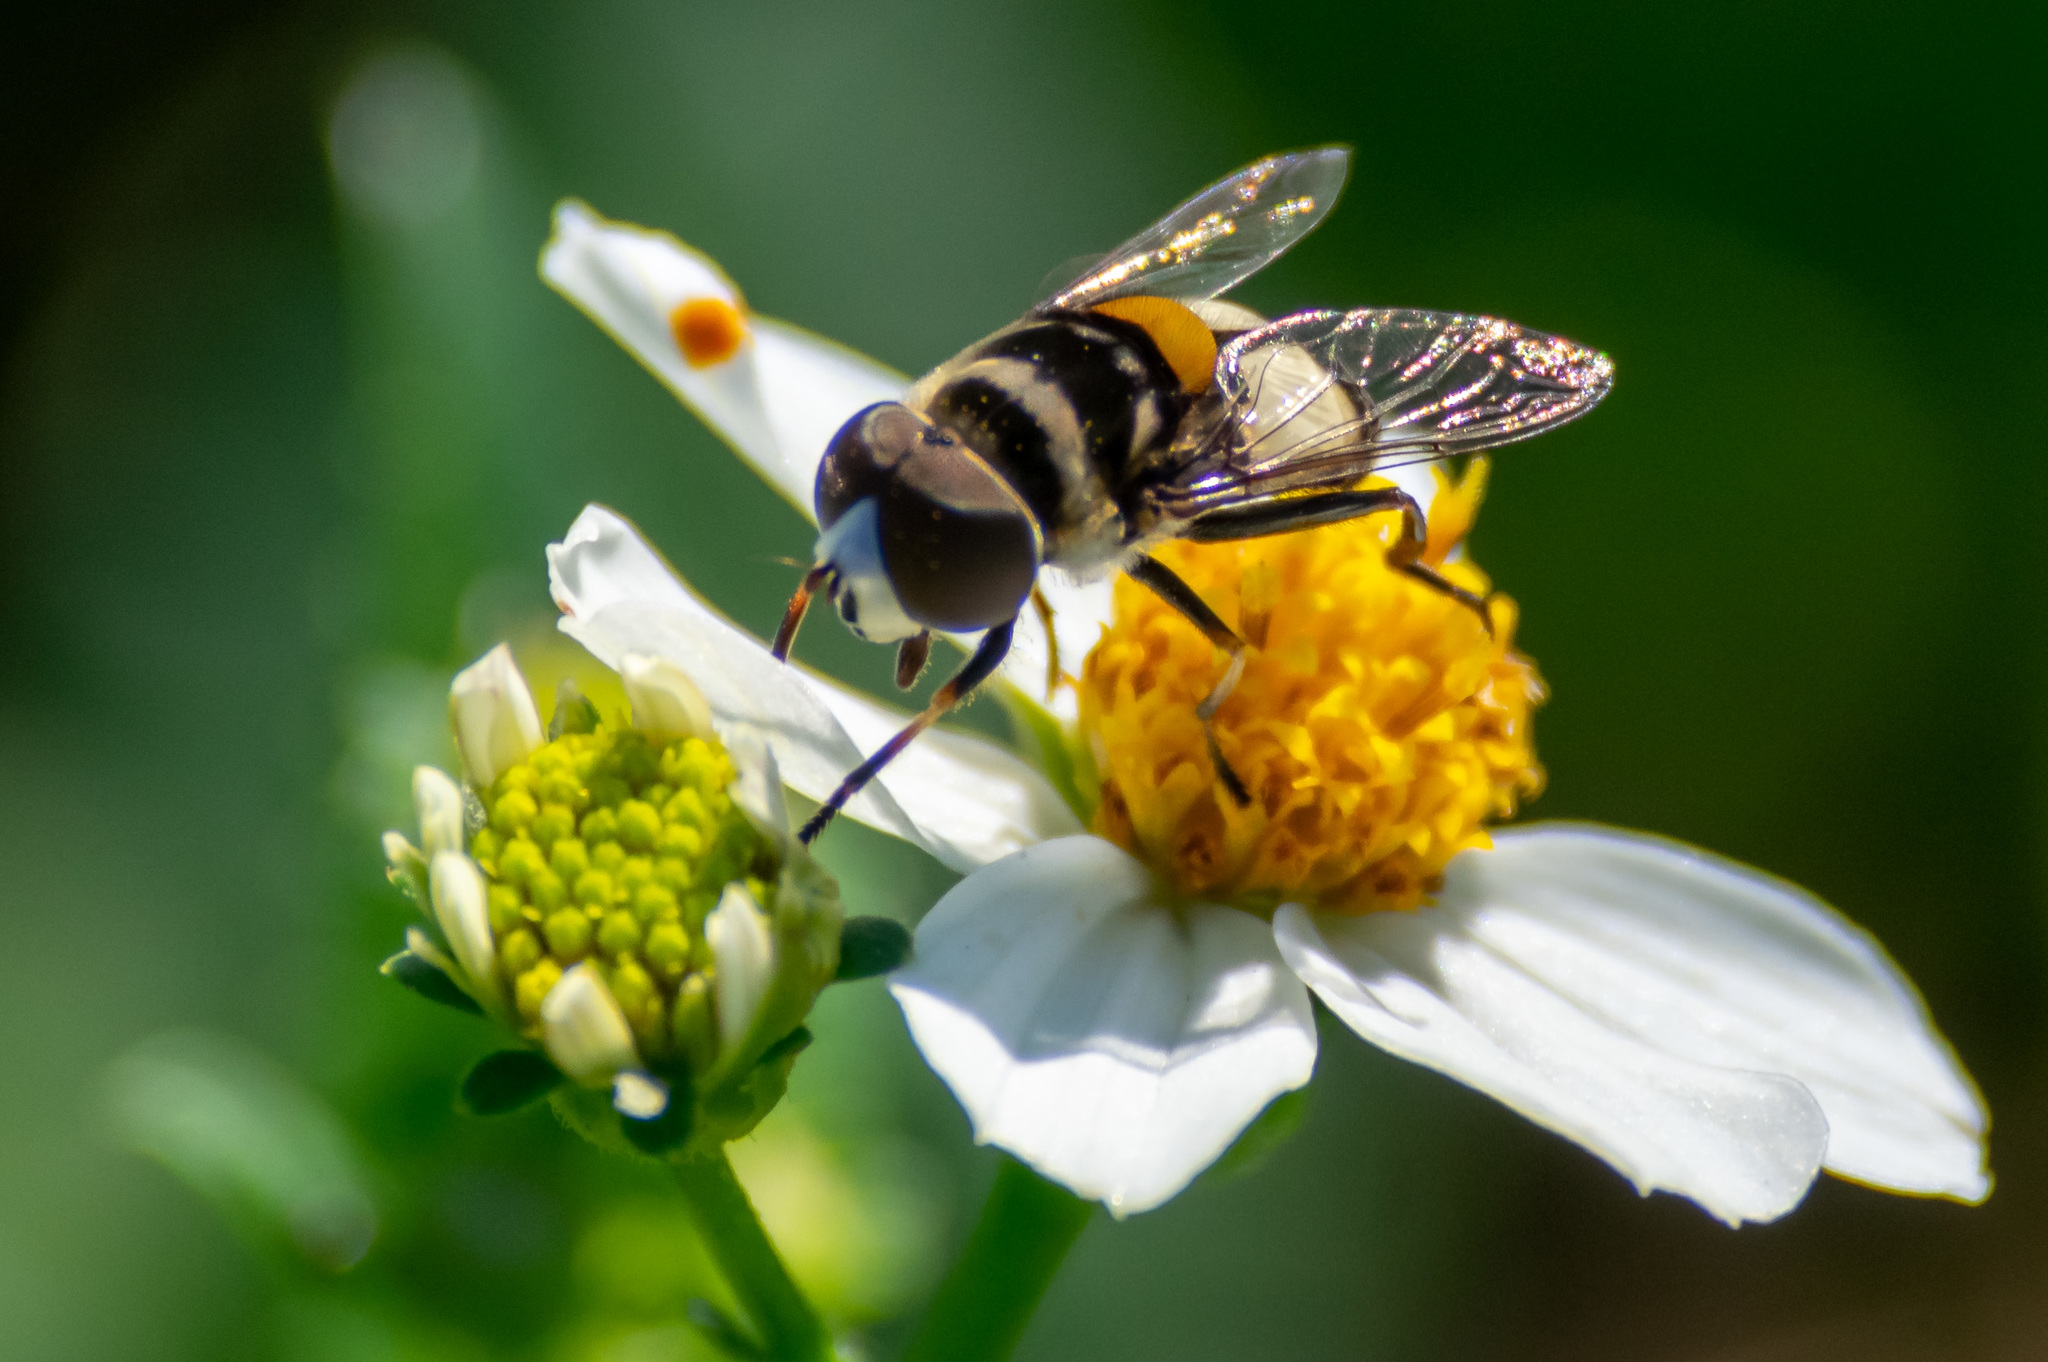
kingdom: Animalia
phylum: Arthropoda
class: Insecta
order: Diptera
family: Syrphidae
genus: Palpada
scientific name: Palpada albifrons
